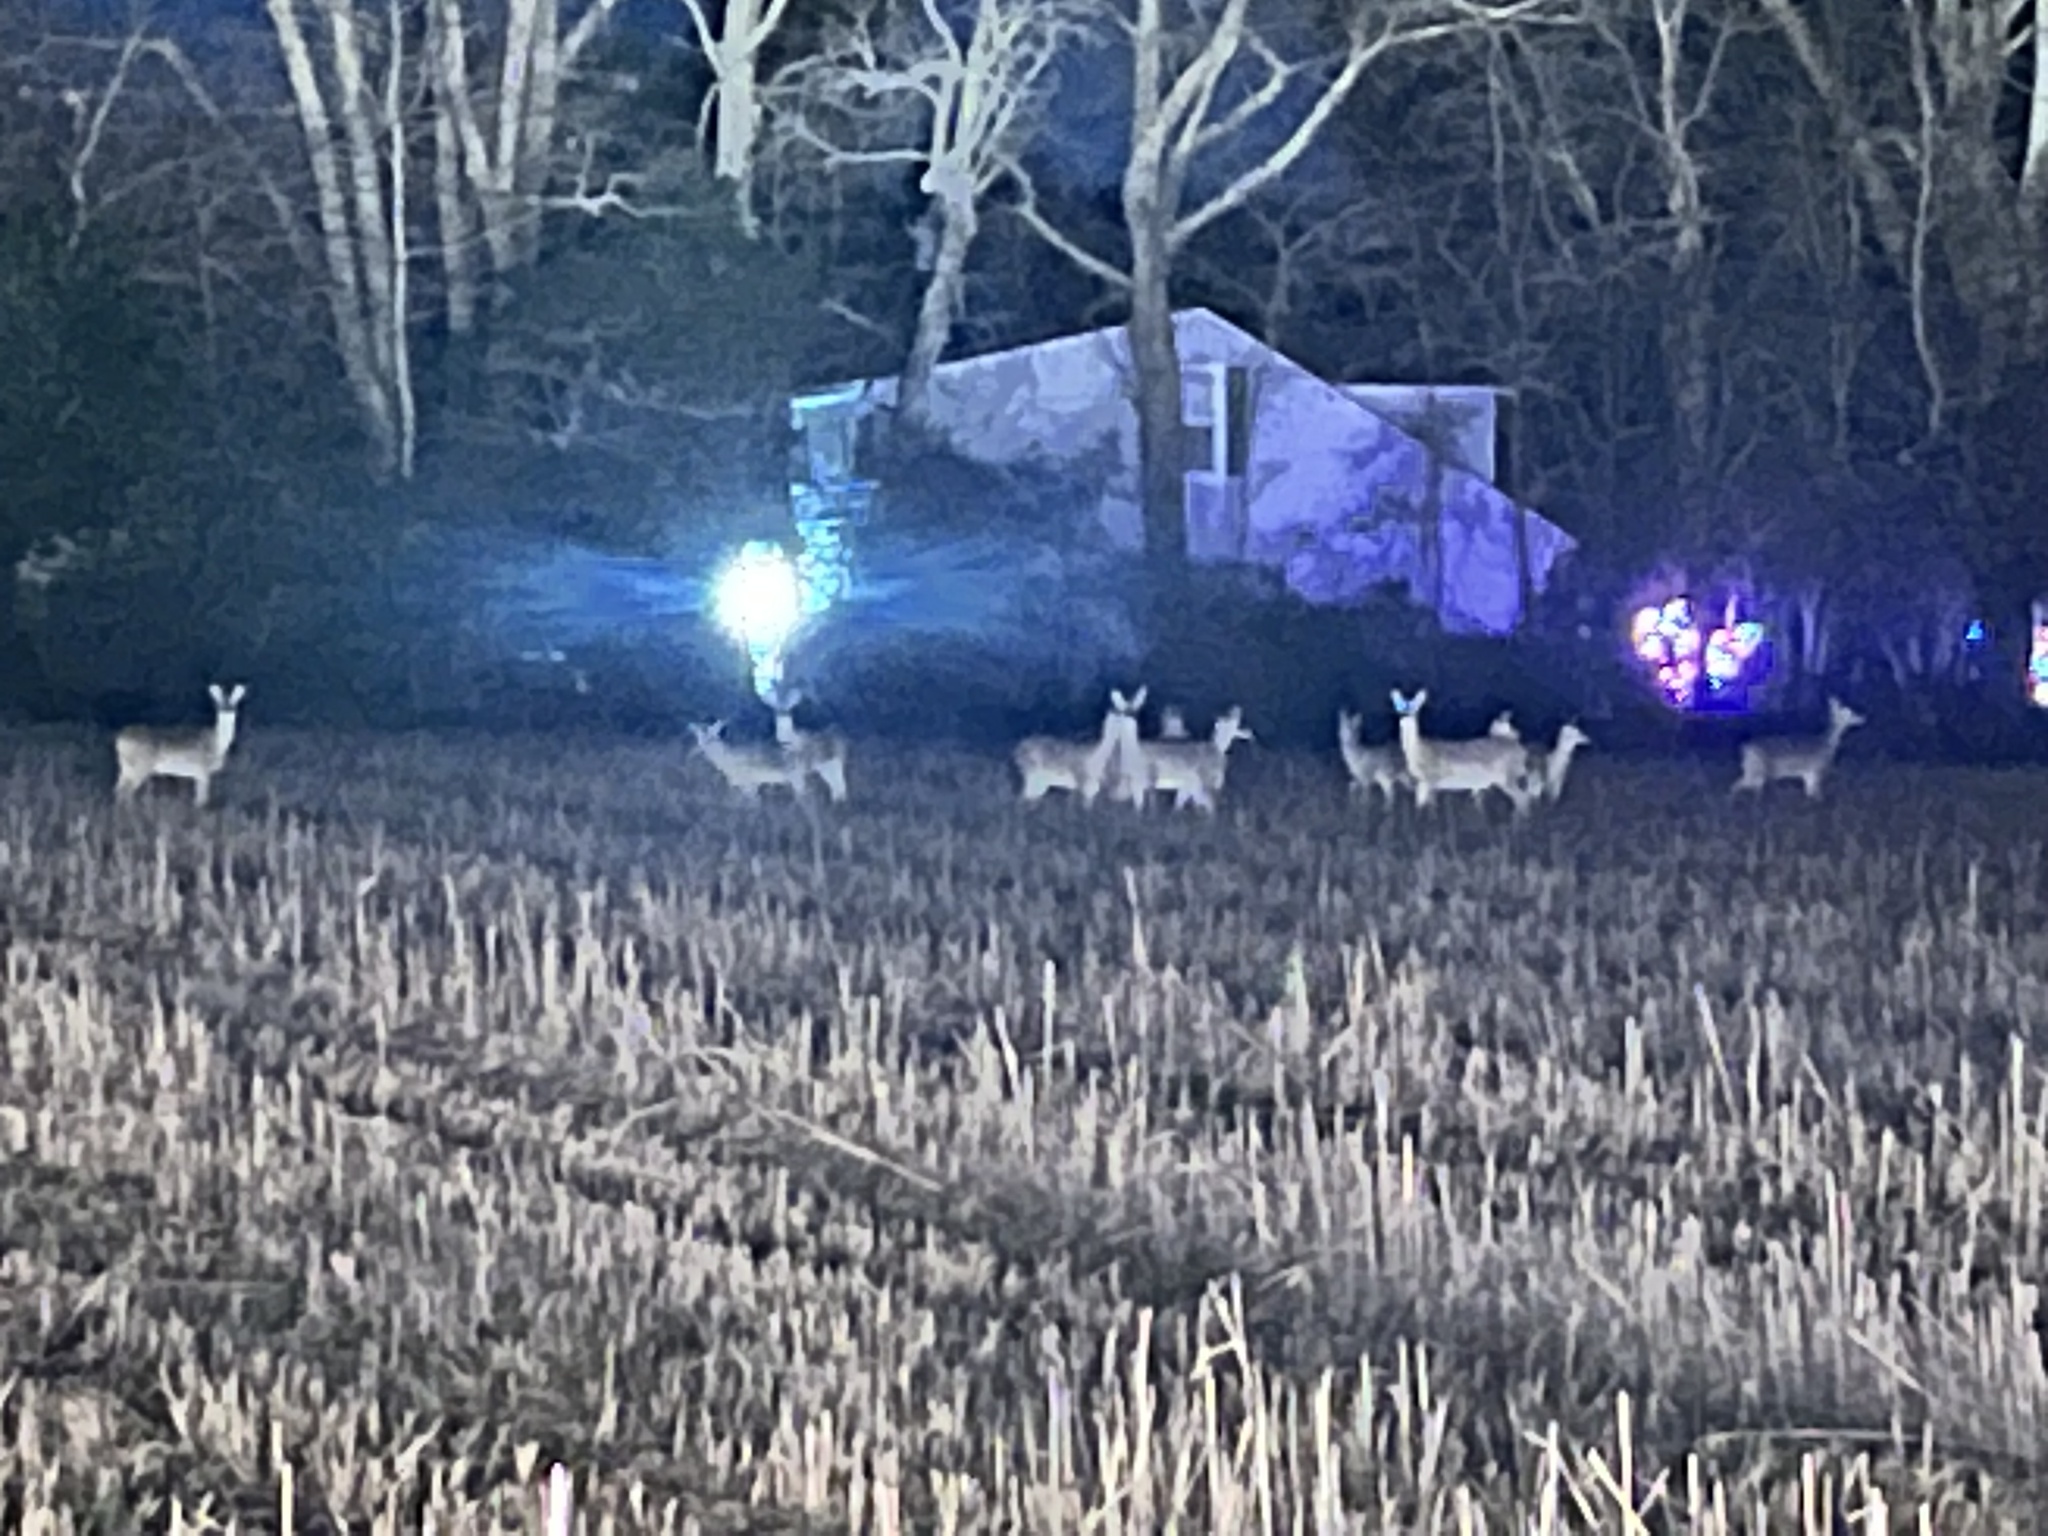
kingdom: Animalia
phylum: Chordata
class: Mammalia
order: Artiodactyla
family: Cervidae
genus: Odocoileus
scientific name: Odocoileus virginianus
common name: White-tailed deer
